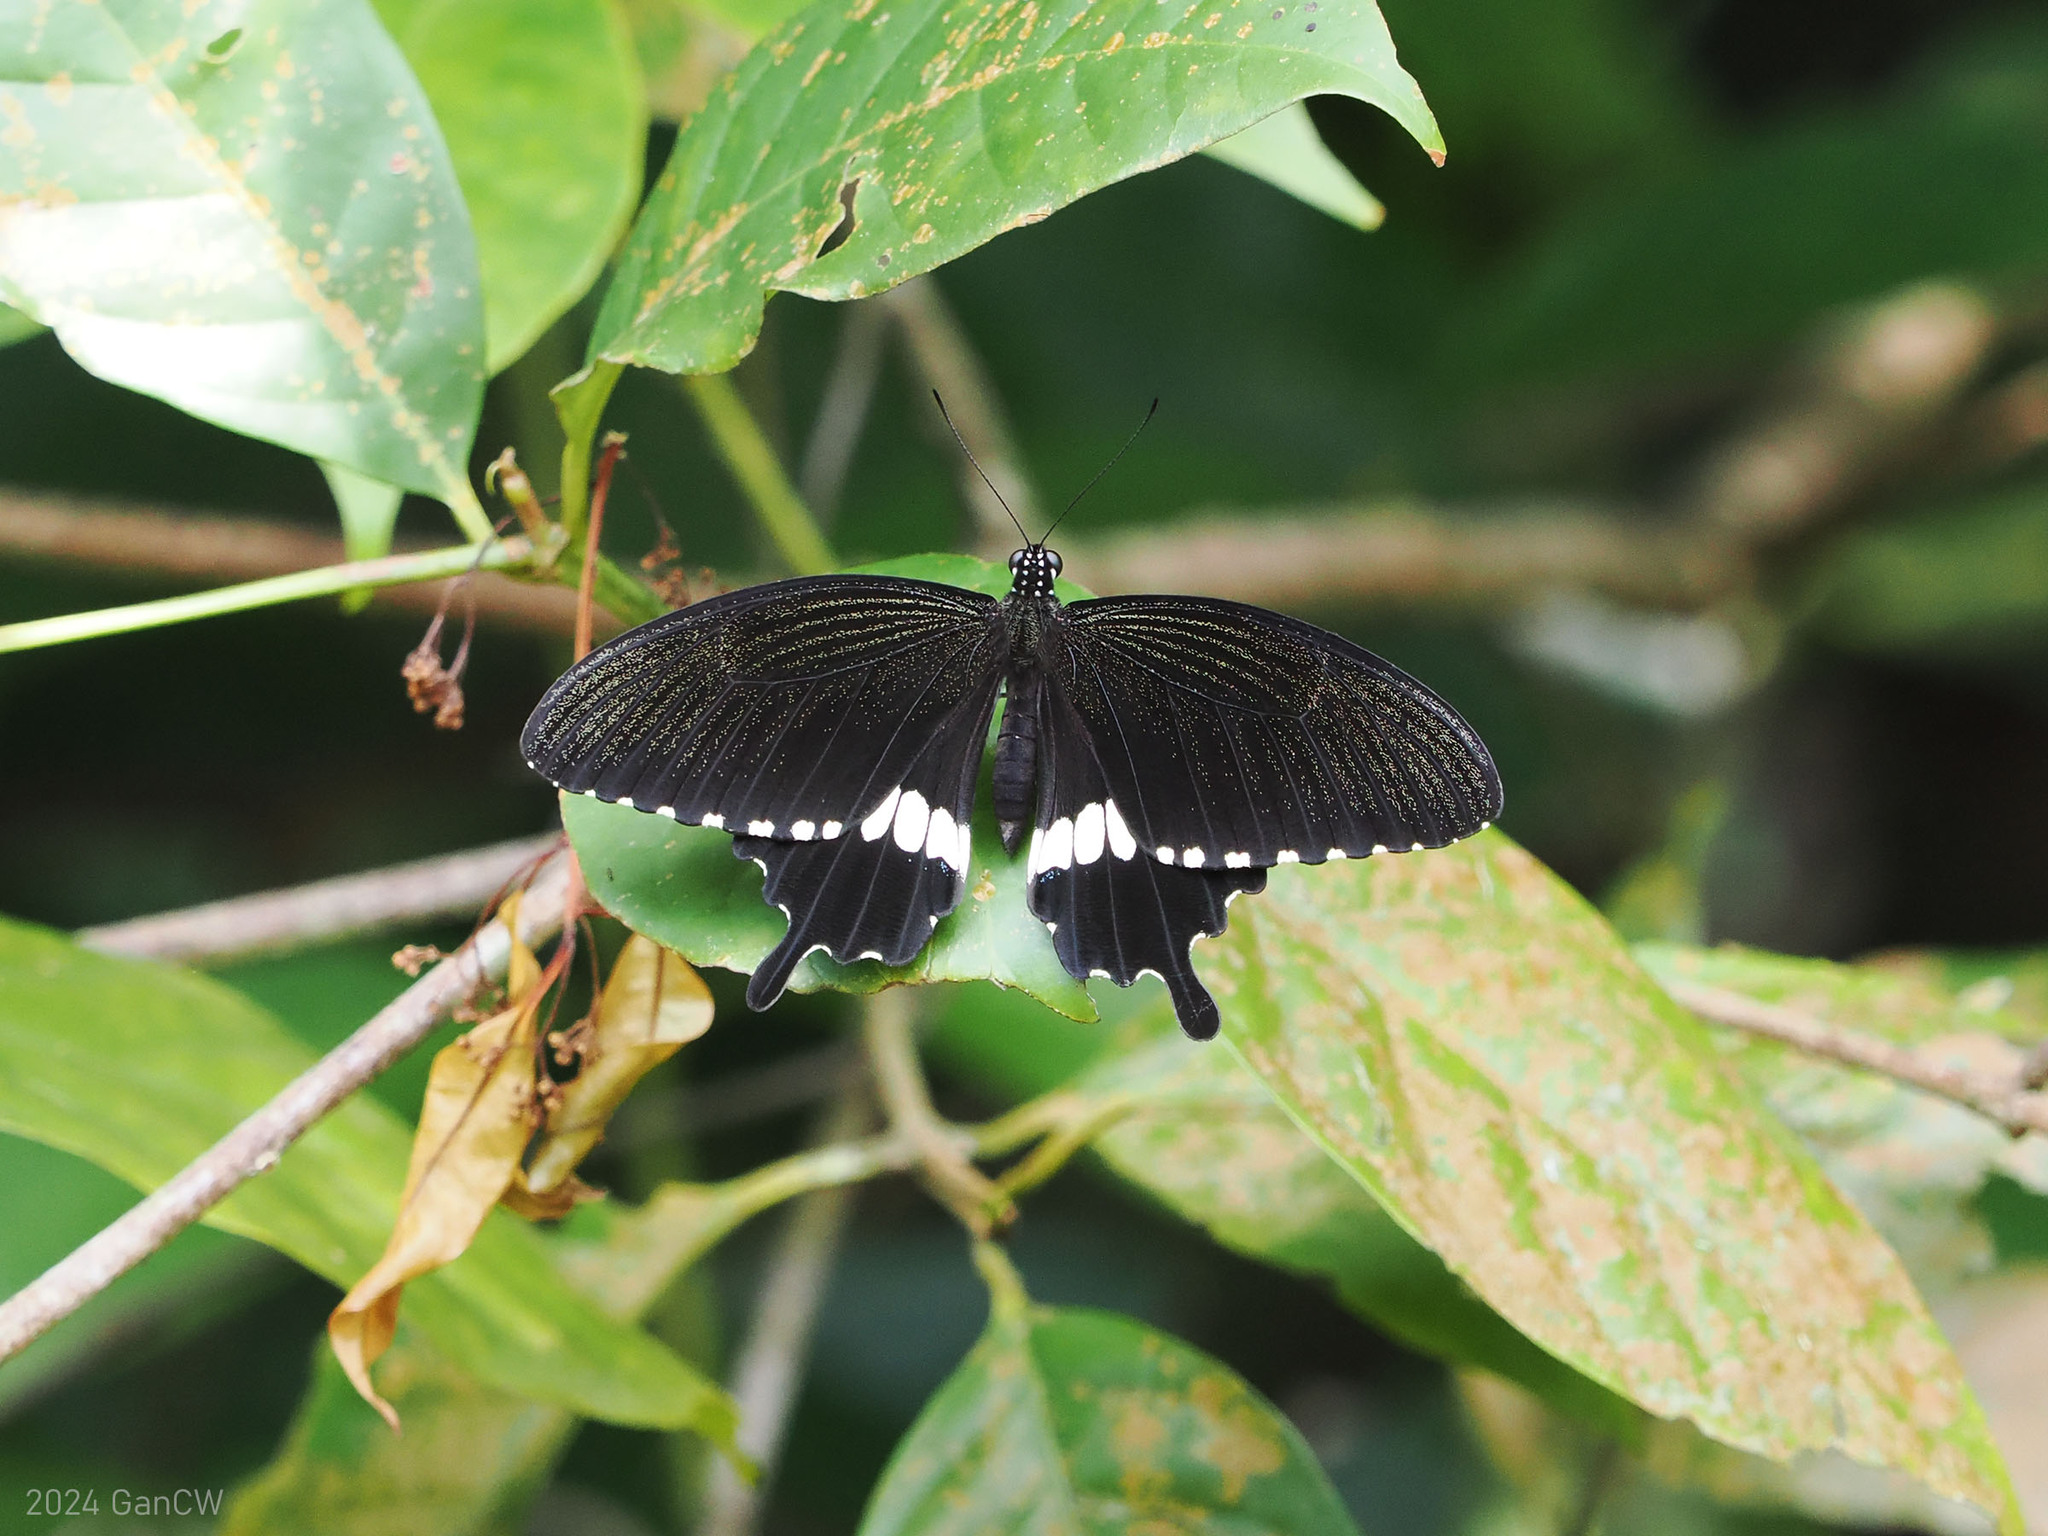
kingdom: Animalia
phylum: Arthropoda
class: Insecta
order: Lepidoptera
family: Papilionidae
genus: Papilio
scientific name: Papilio polytes
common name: Common mormon
